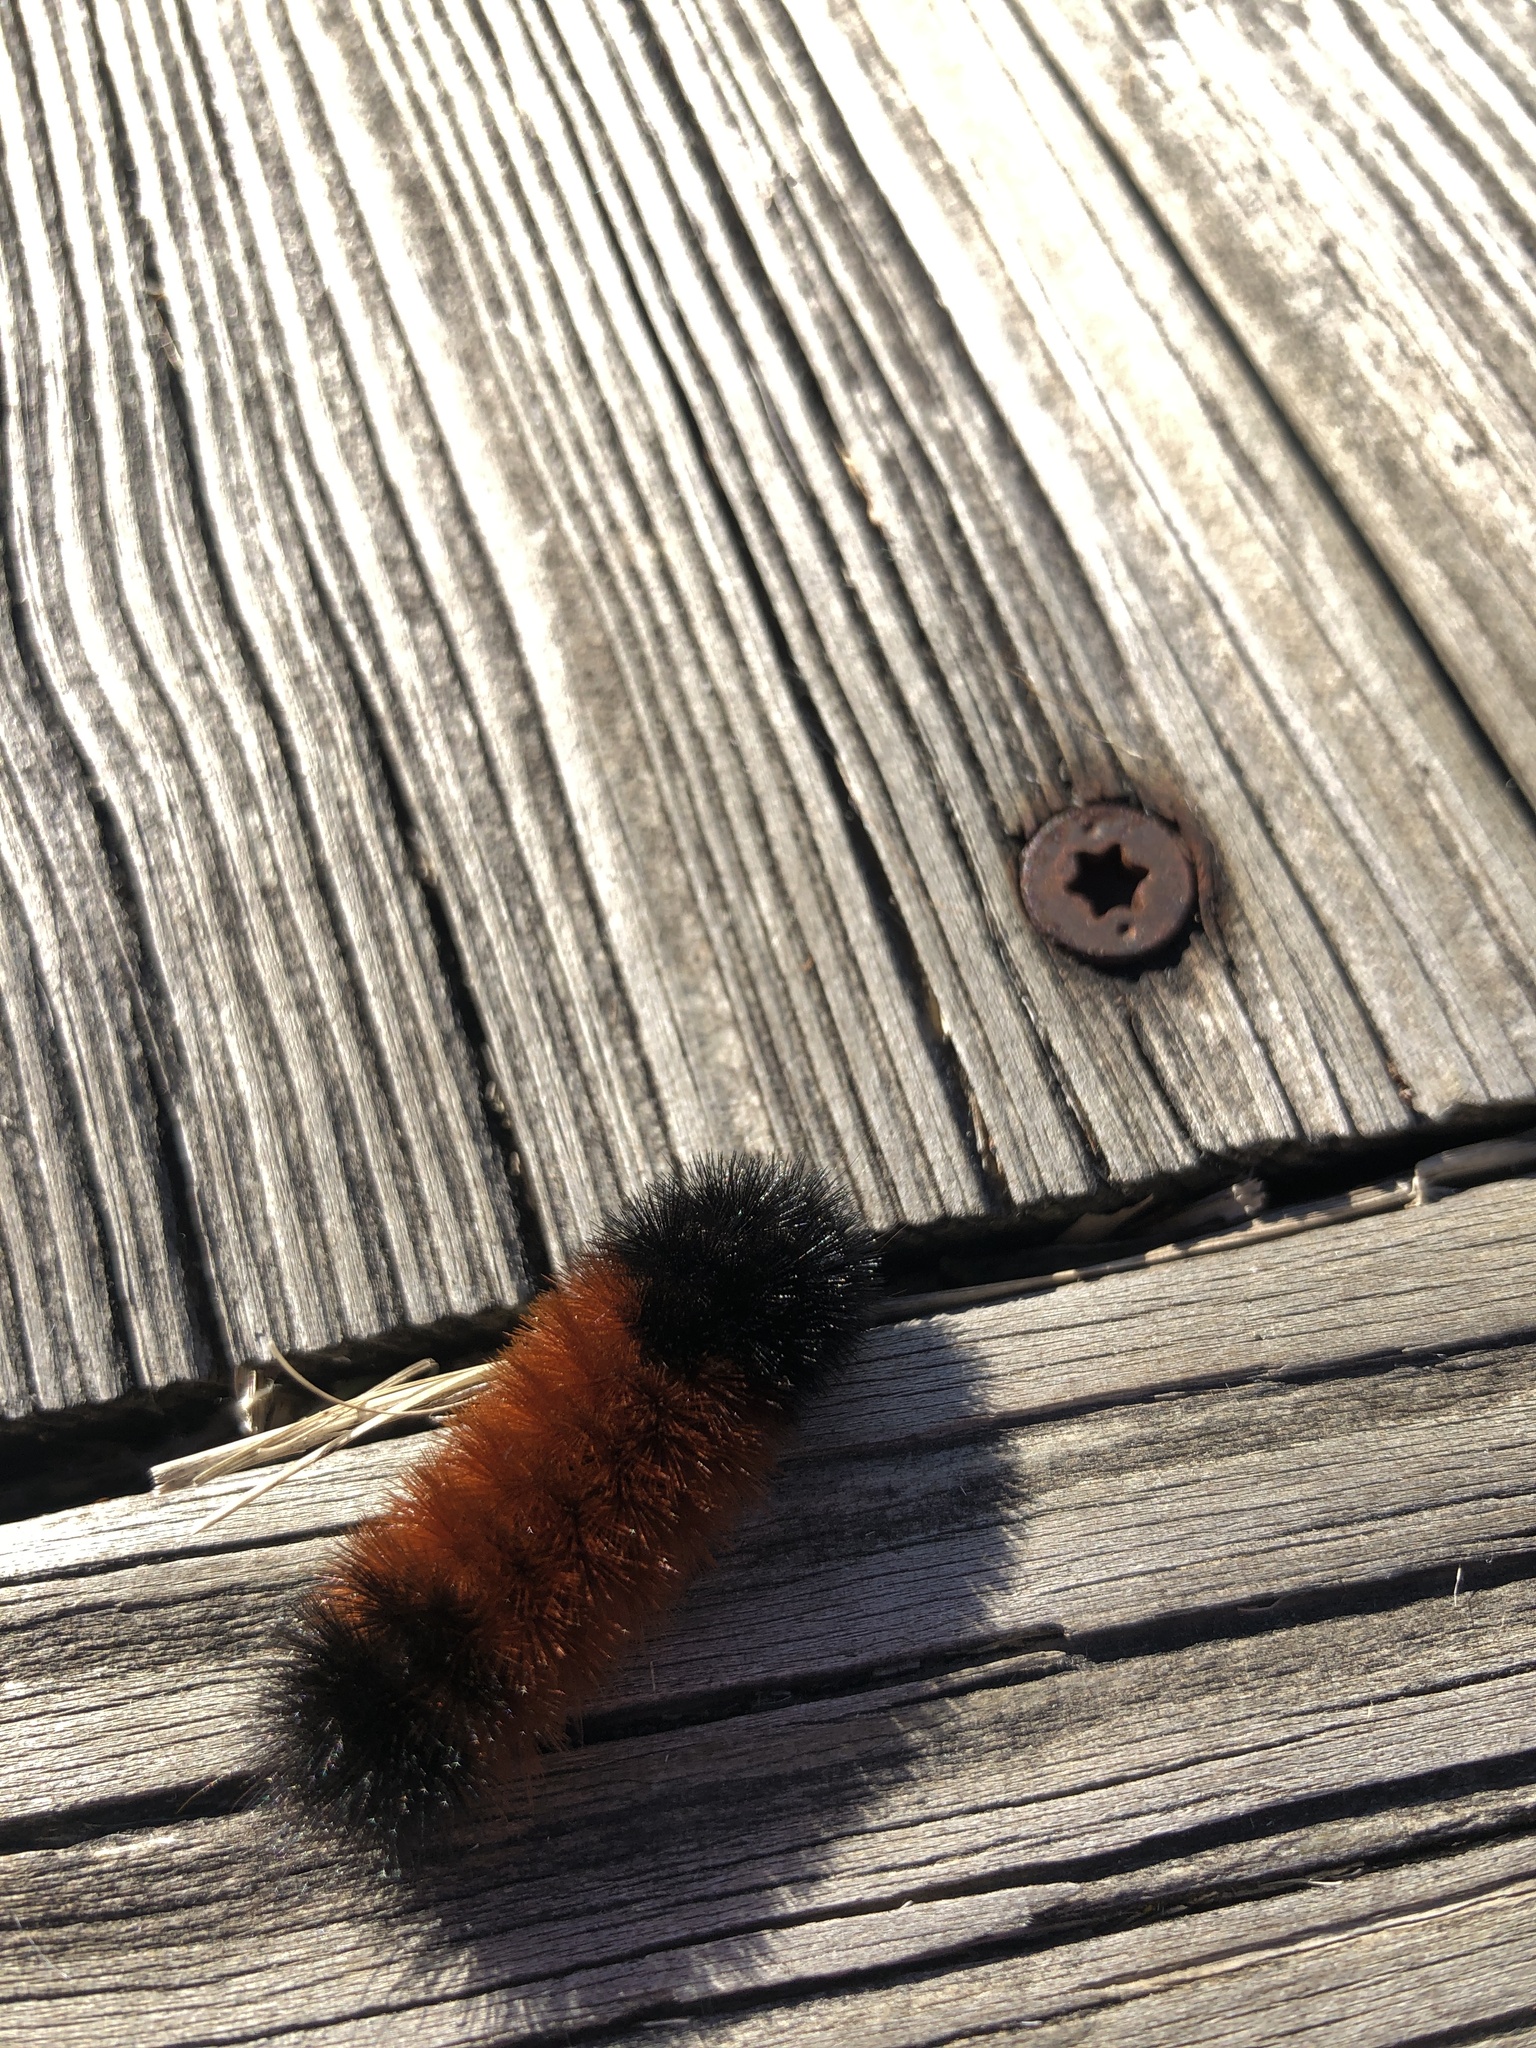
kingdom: Animalia
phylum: Arthropoda
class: Insecta
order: Lepidoptera
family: Erebidae
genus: Pyrrharctia
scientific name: Pyrrharctia isabella
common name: Isabella tiger moth
